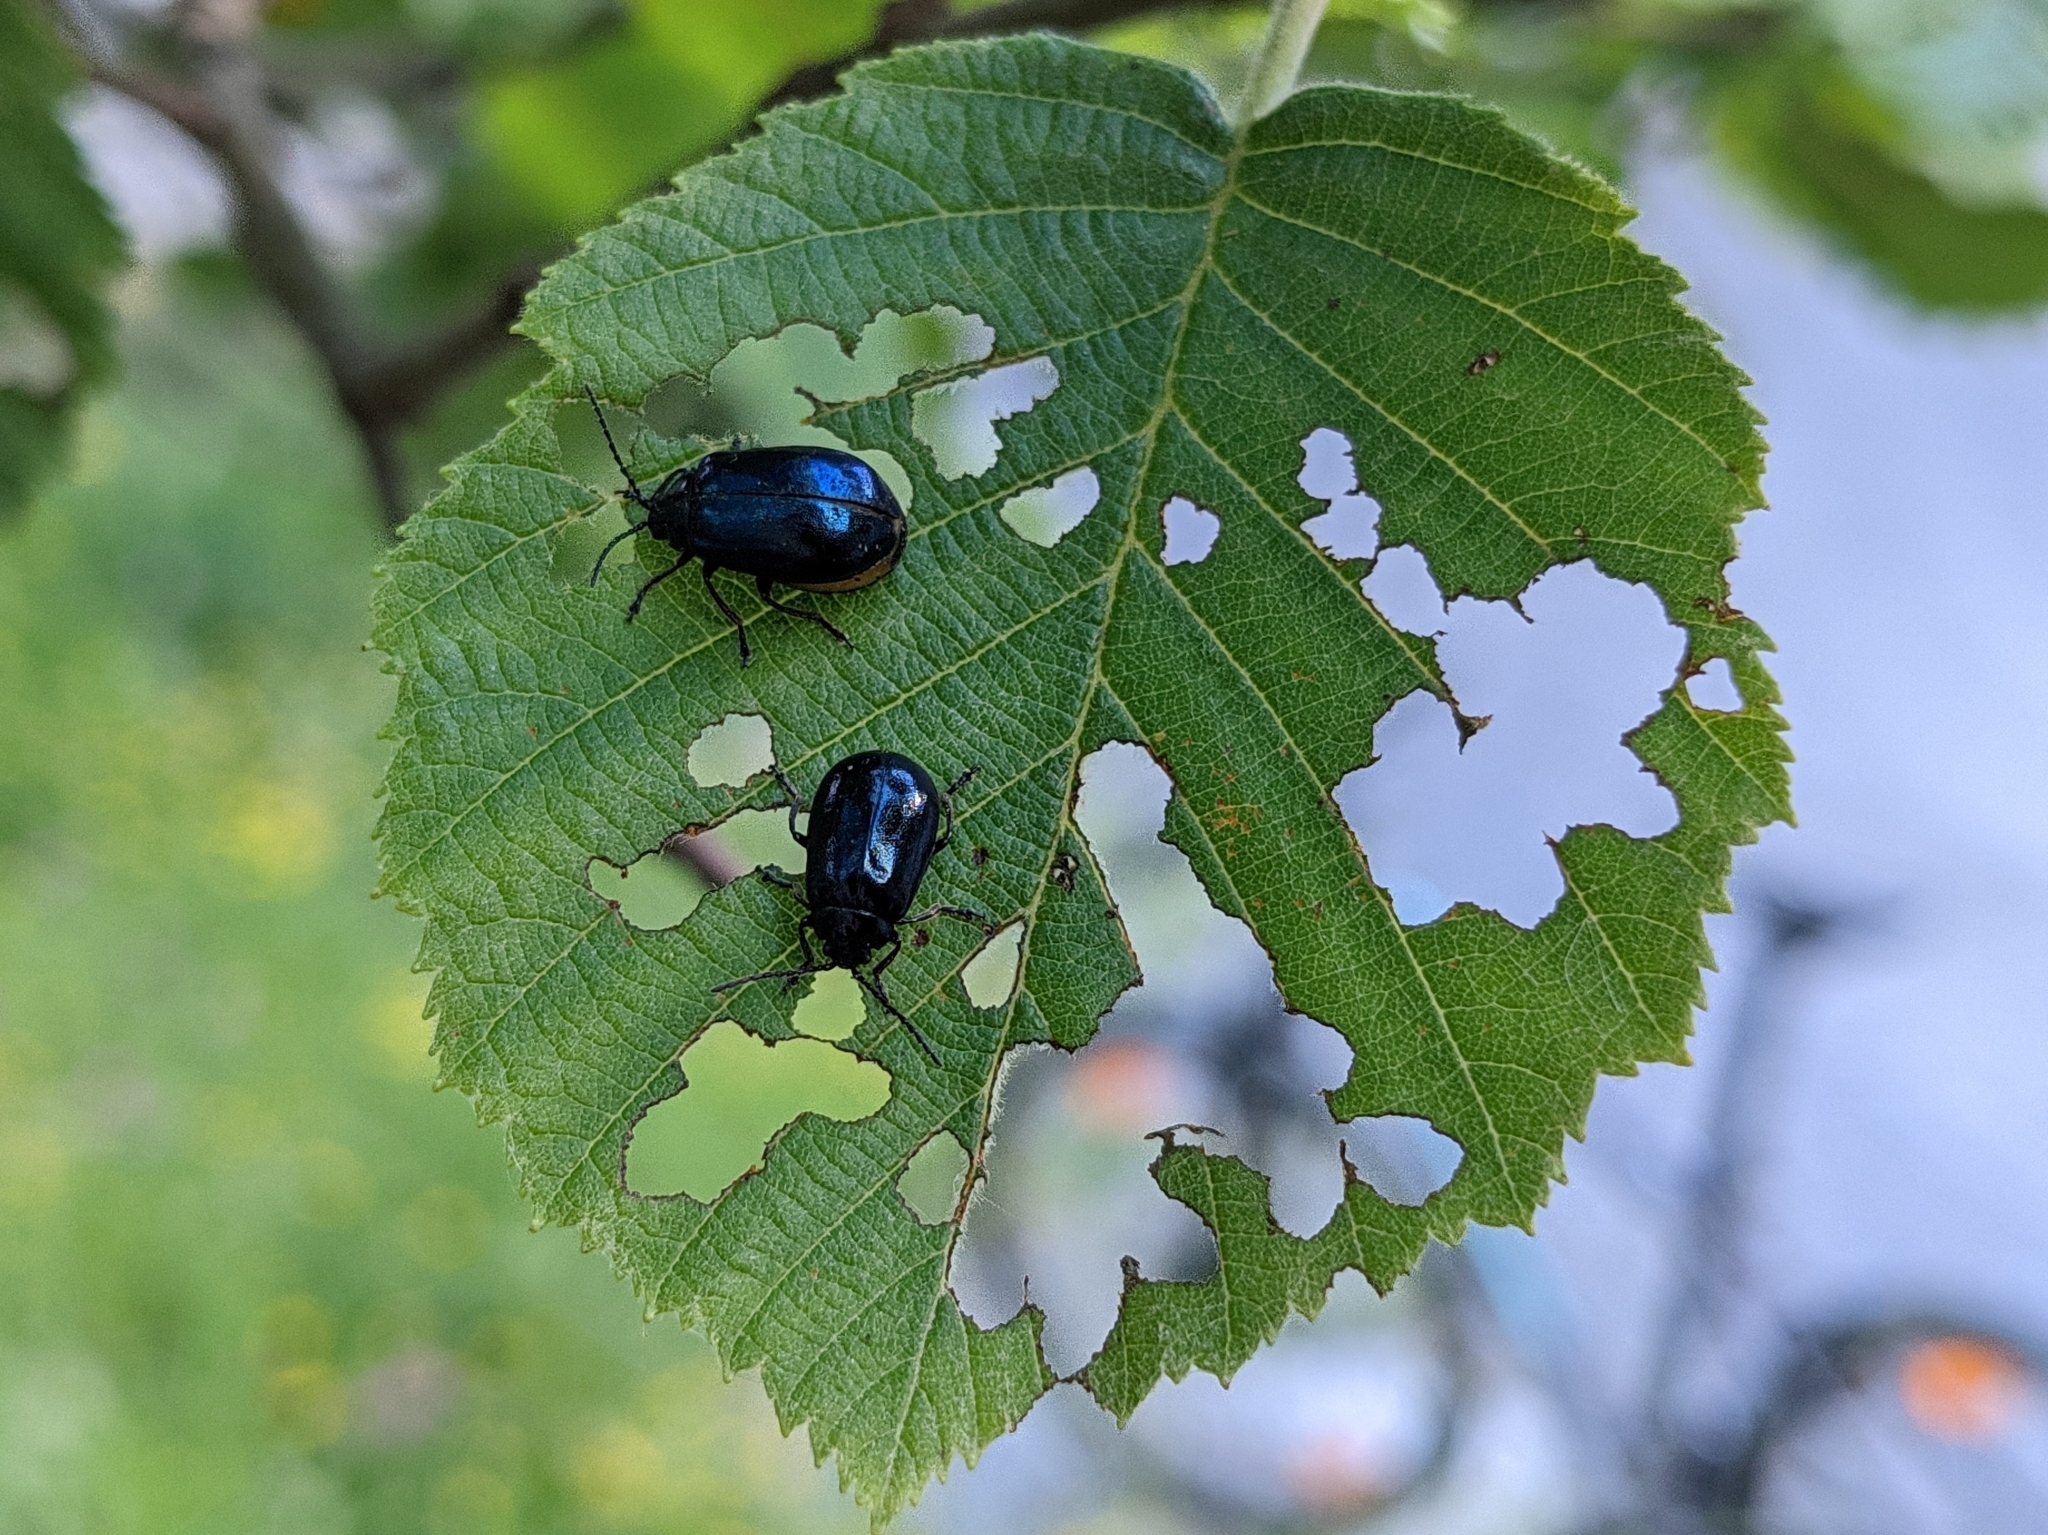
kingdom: Animalia
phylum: Arthropoda
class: Insecta
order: Coleoptera
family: Chrysomelidae
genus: Agelastica
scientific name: Agelastica alni
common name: Alder leaf beetle
